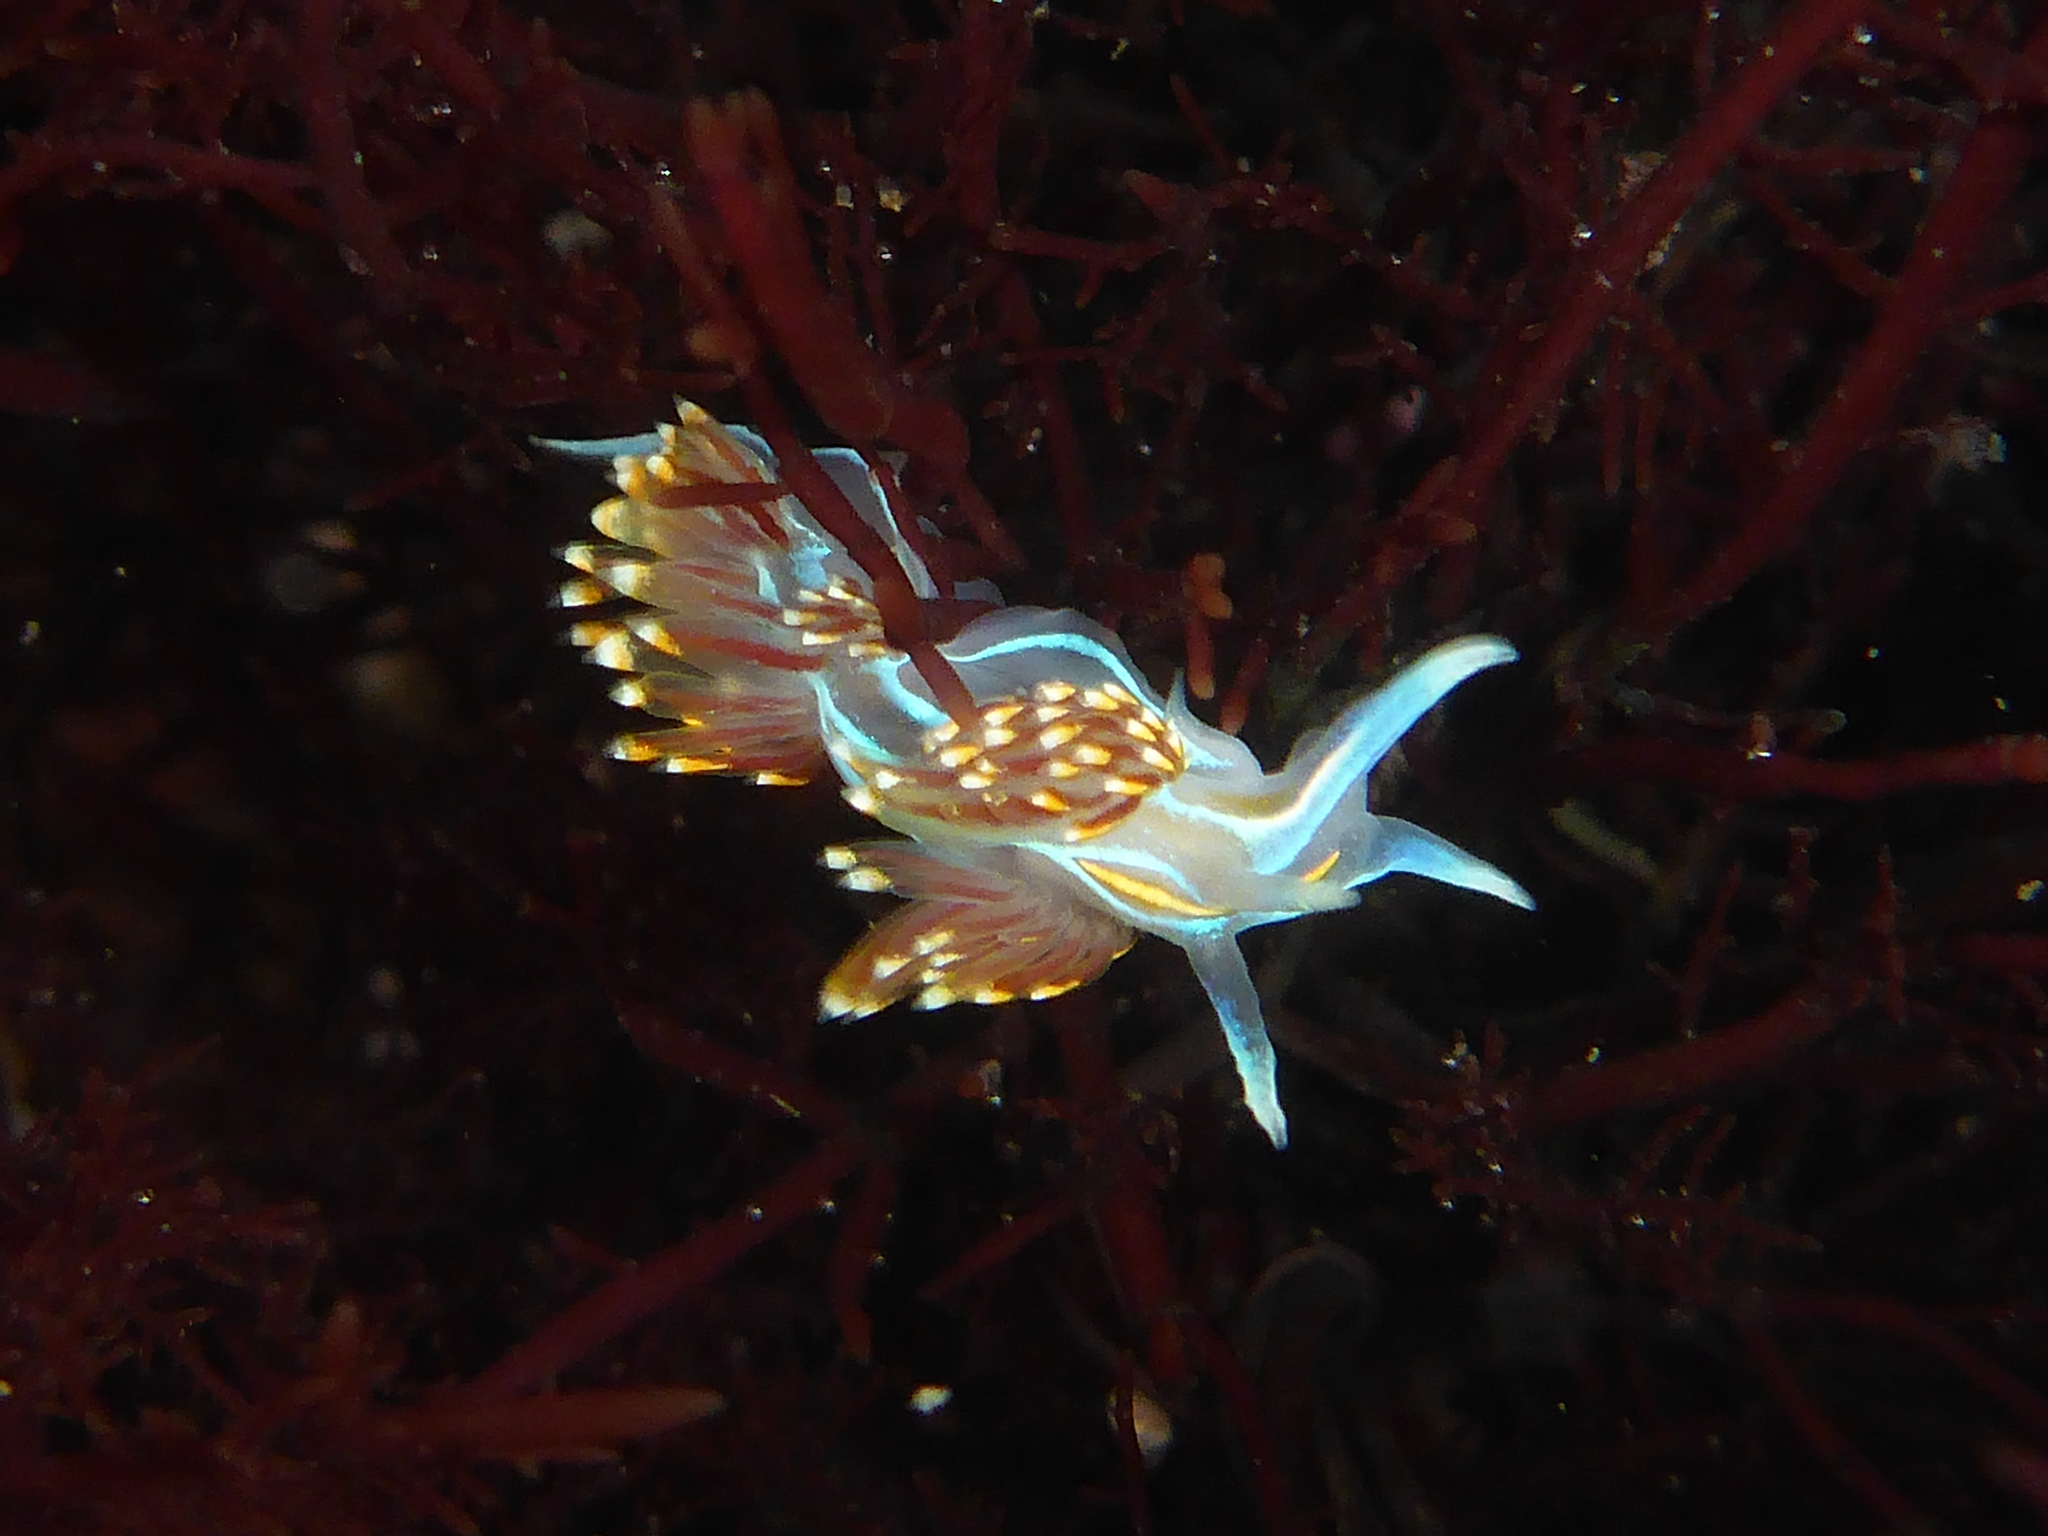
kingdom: Animalia
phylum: Mollusca
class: Gastropoda
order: Nudibranchia
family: Myrrhinidae
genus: Hermissenda
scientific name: Hermissenda opalescens
